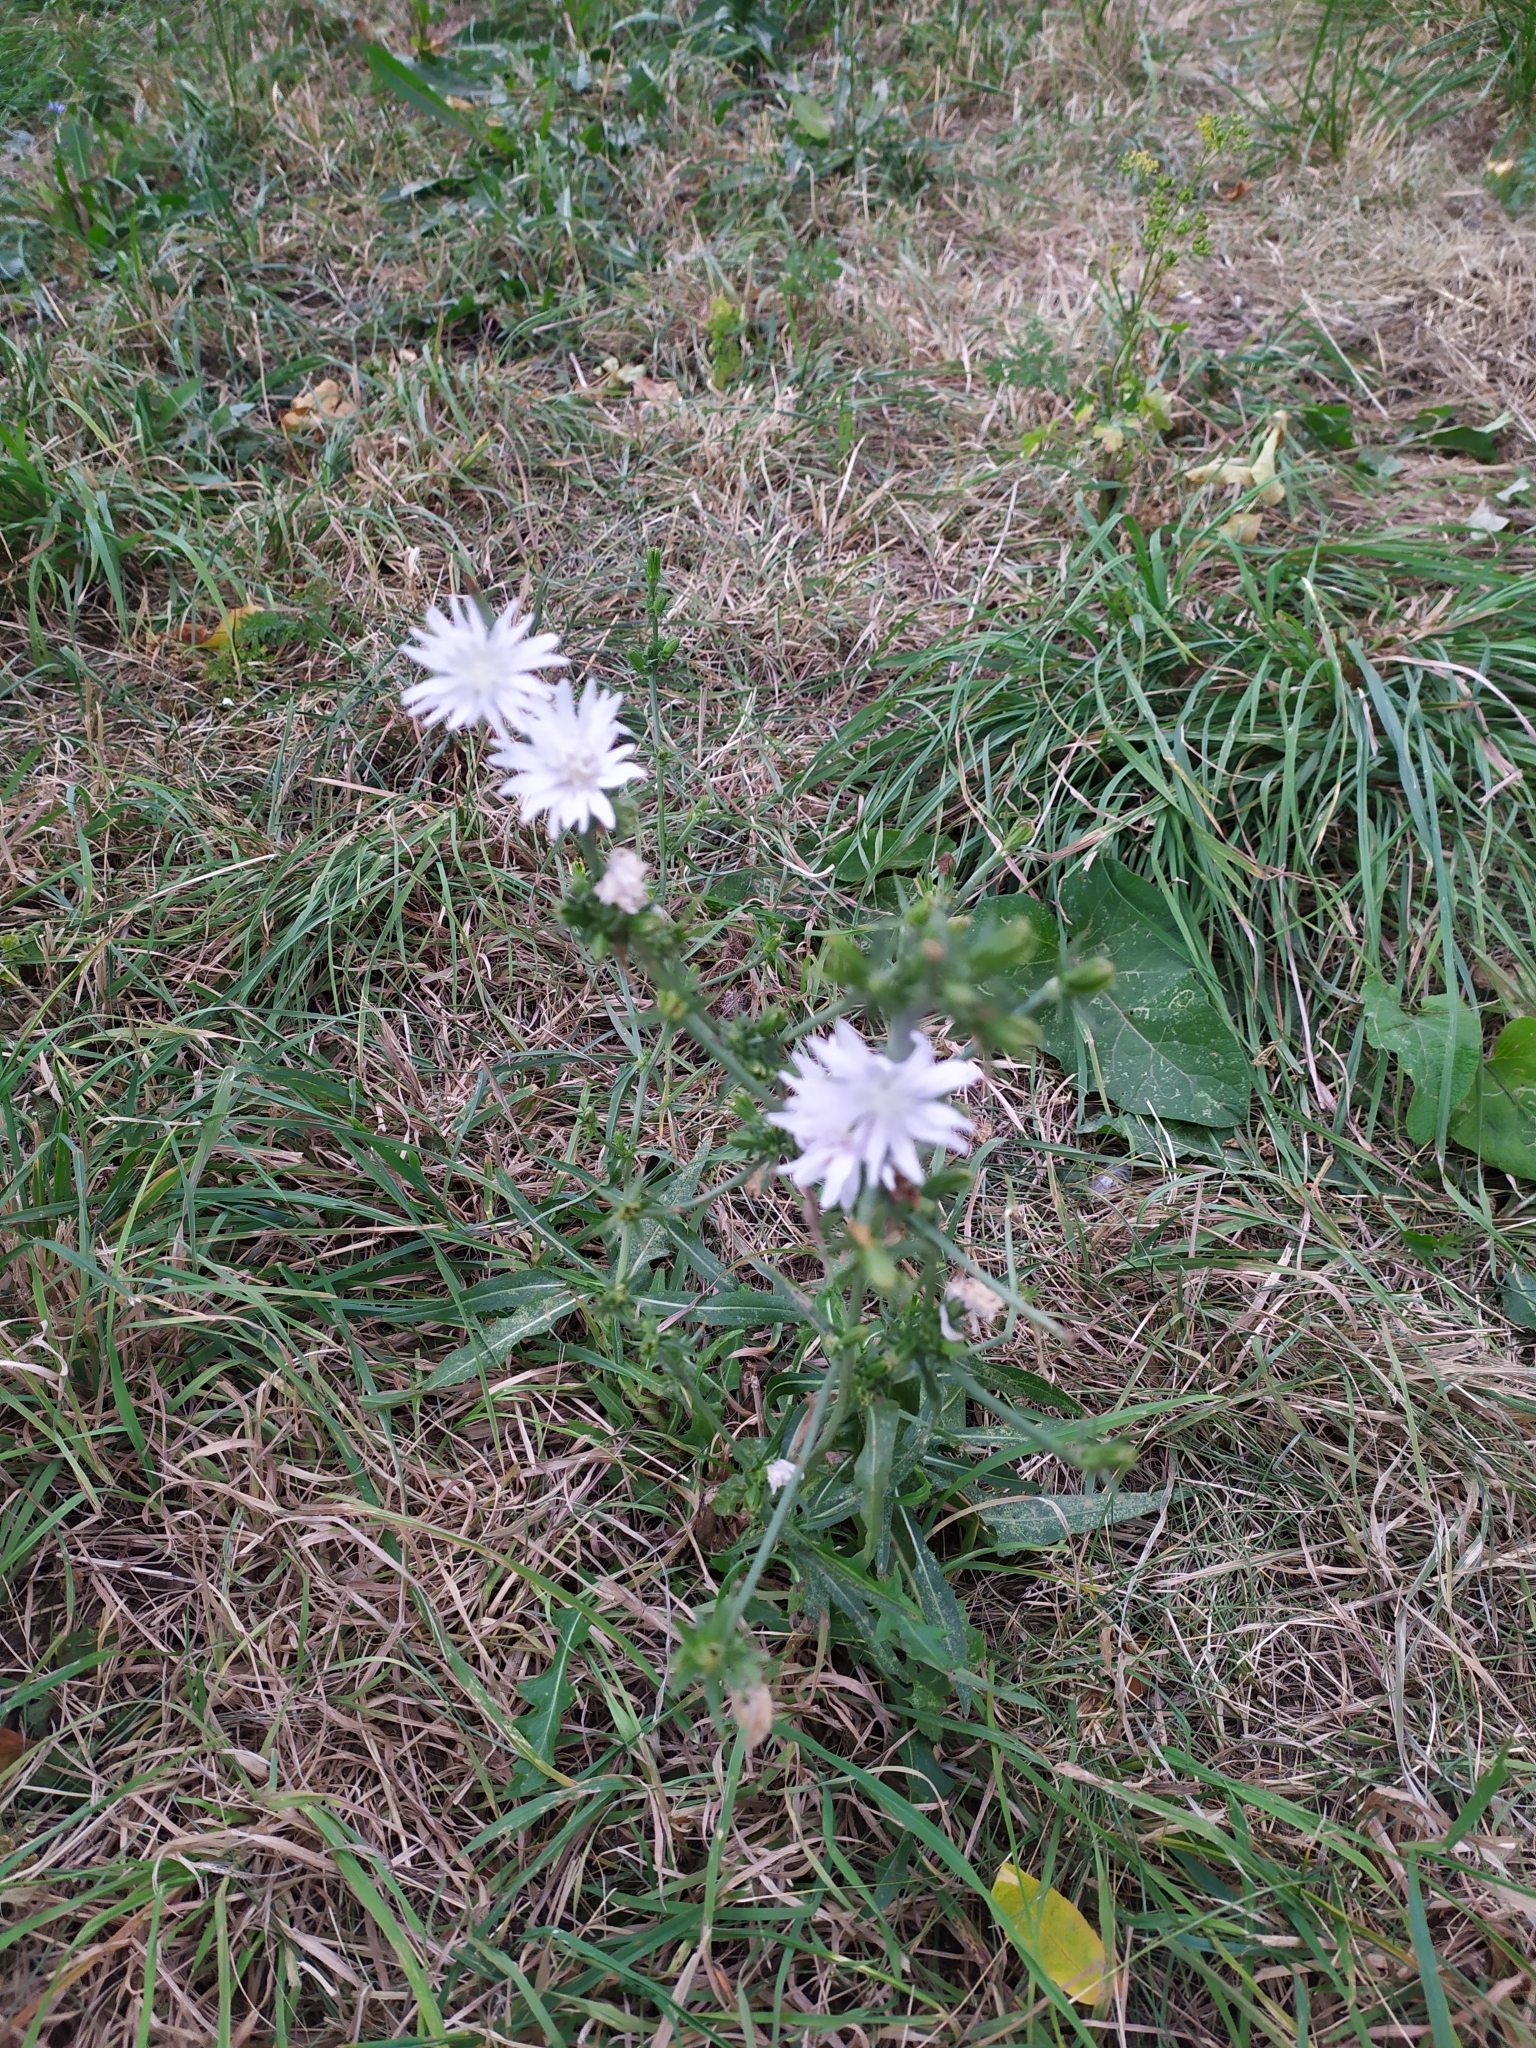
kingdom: Plantae
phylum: Tracheophyta
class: Magnoliopsida
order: Asterales
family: Asteraceae
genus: Cichorium
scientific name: Cichorium intybus
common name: Chicory
